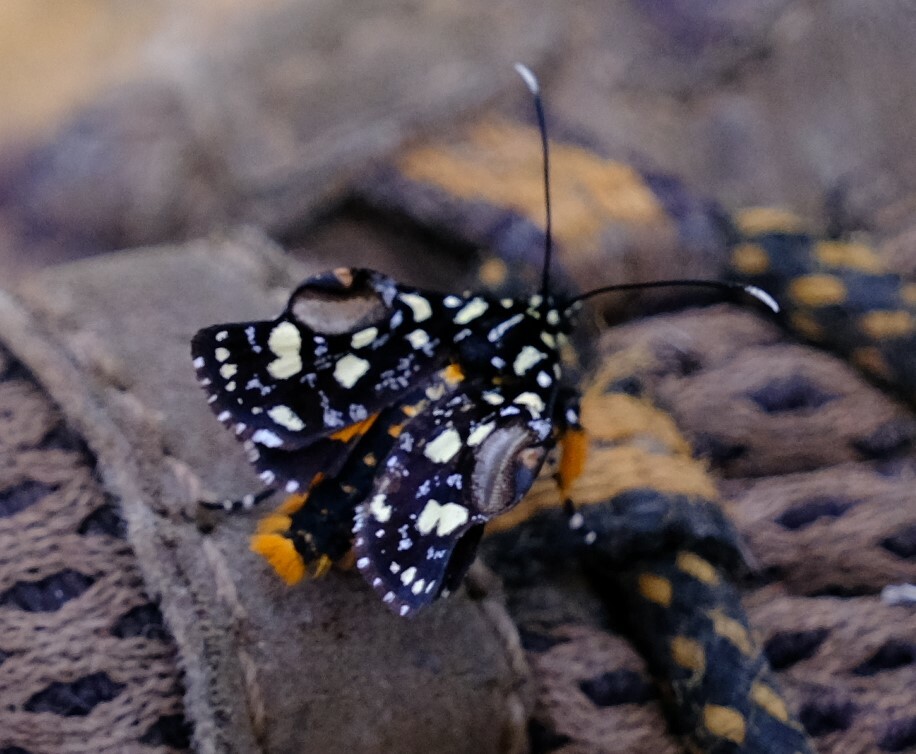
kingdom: Animalia
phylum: Arthropoda
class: Insecta
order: Lepidoptera
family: Noctuidae
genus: Hecatesia
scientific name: Hecatesia exultans
